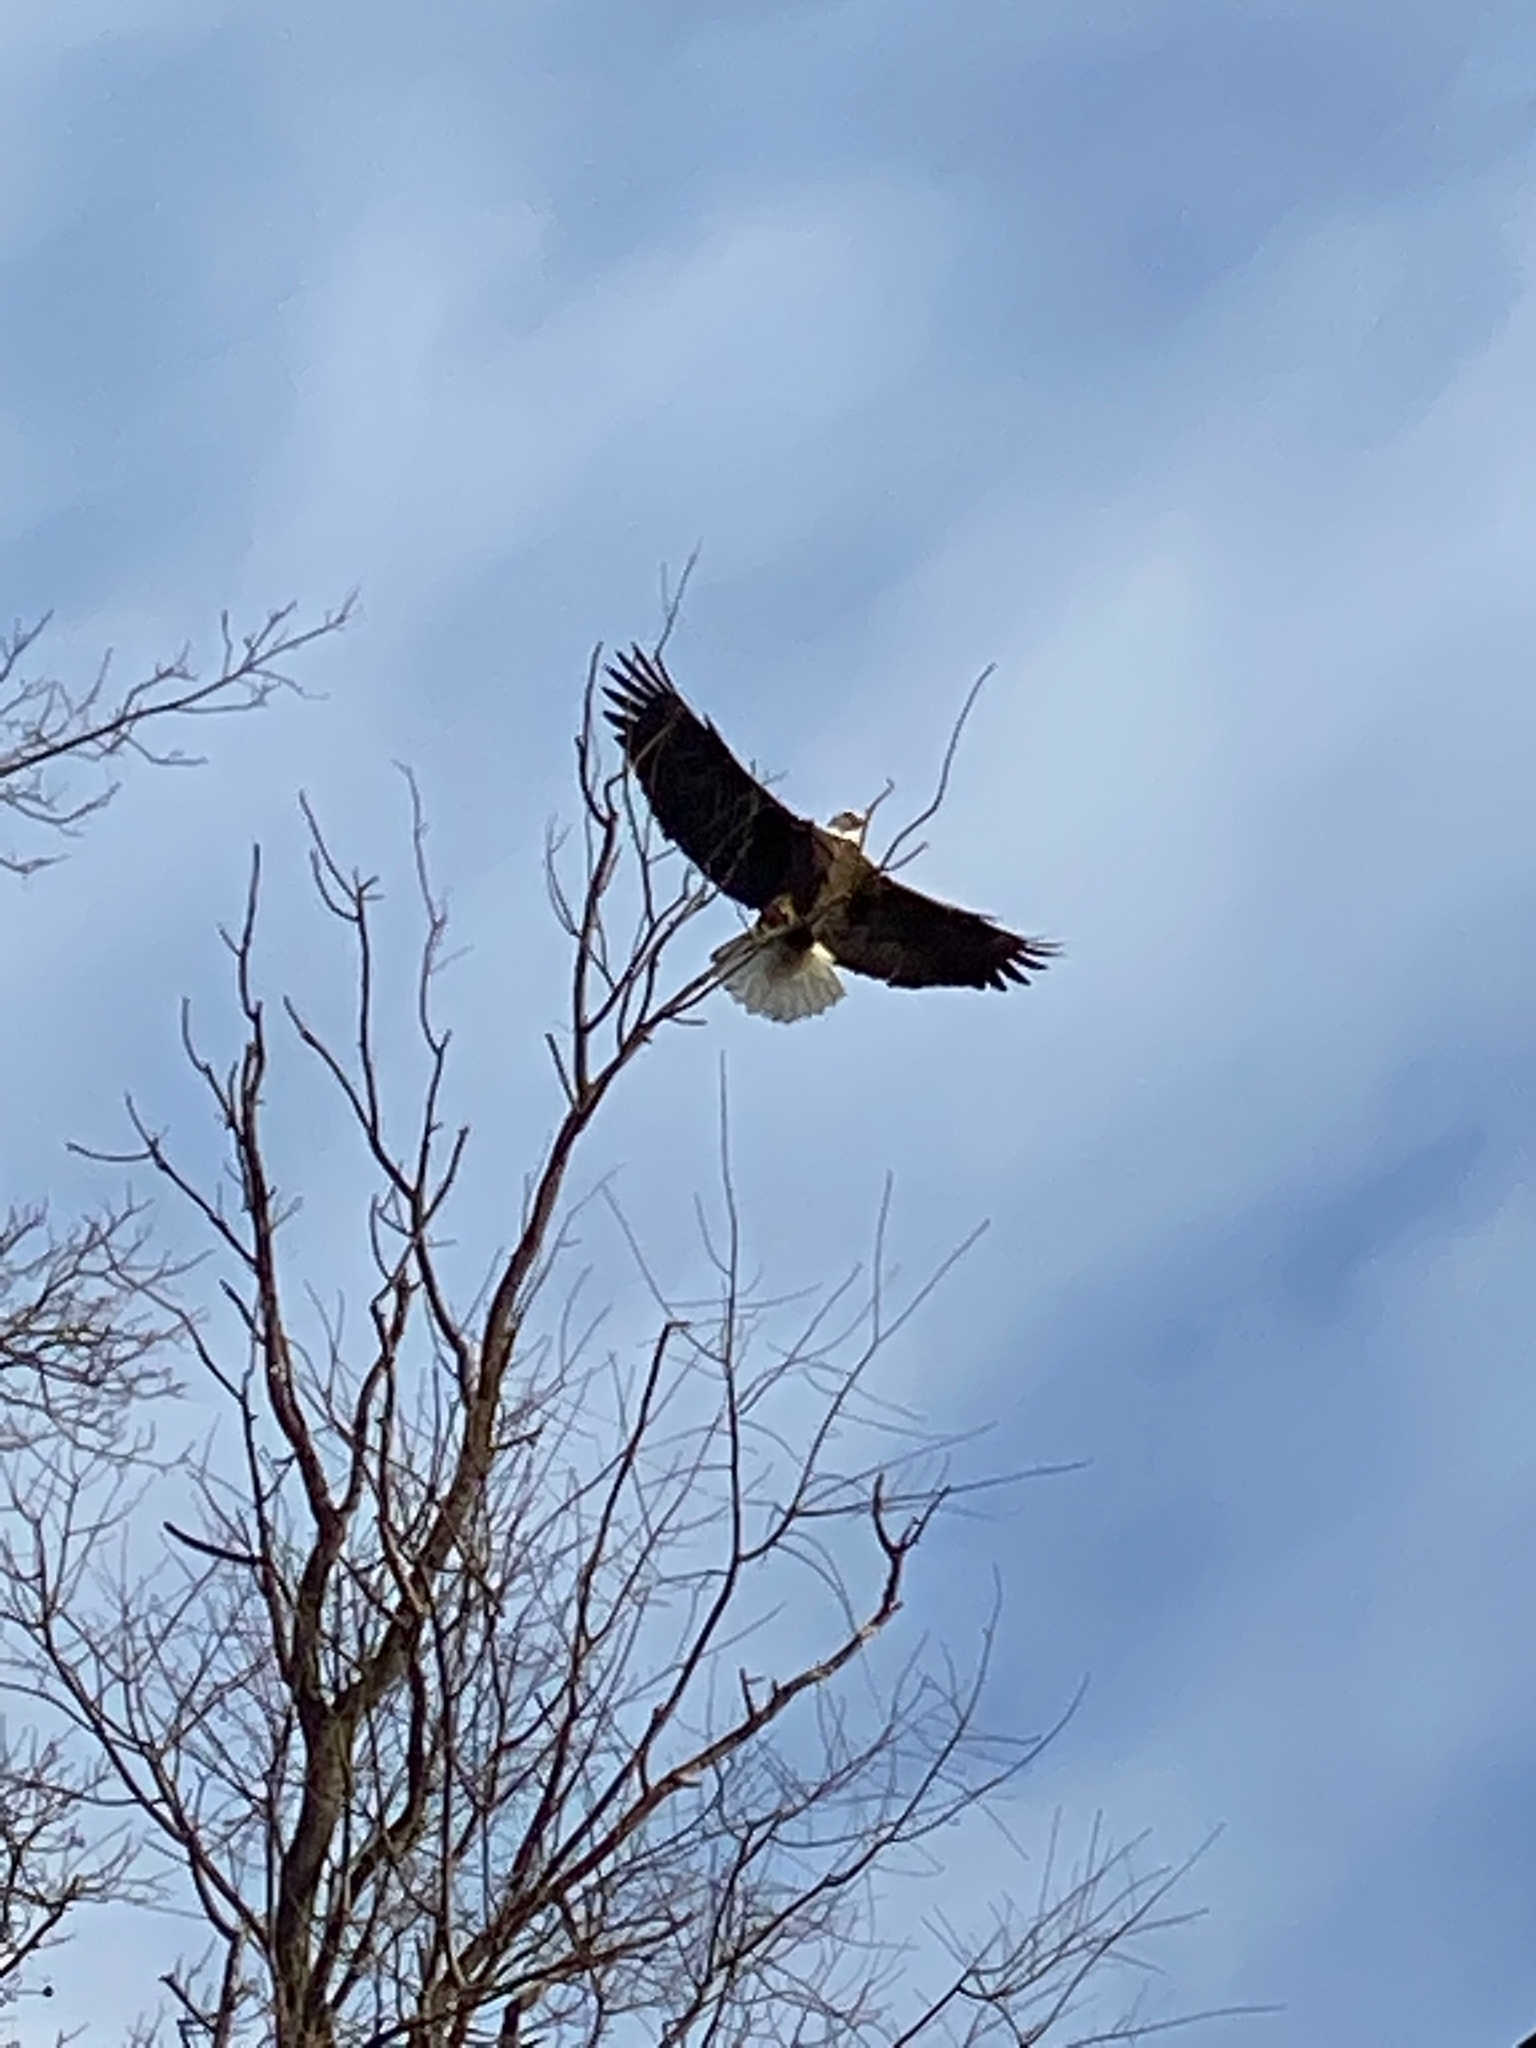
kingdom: Animalia
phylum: Chordata
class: Aves
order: Accipitriformes
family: Accipitridae
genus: Haliaeetus
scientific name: Haliaeetus leucocephalus
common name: Bald eagle
